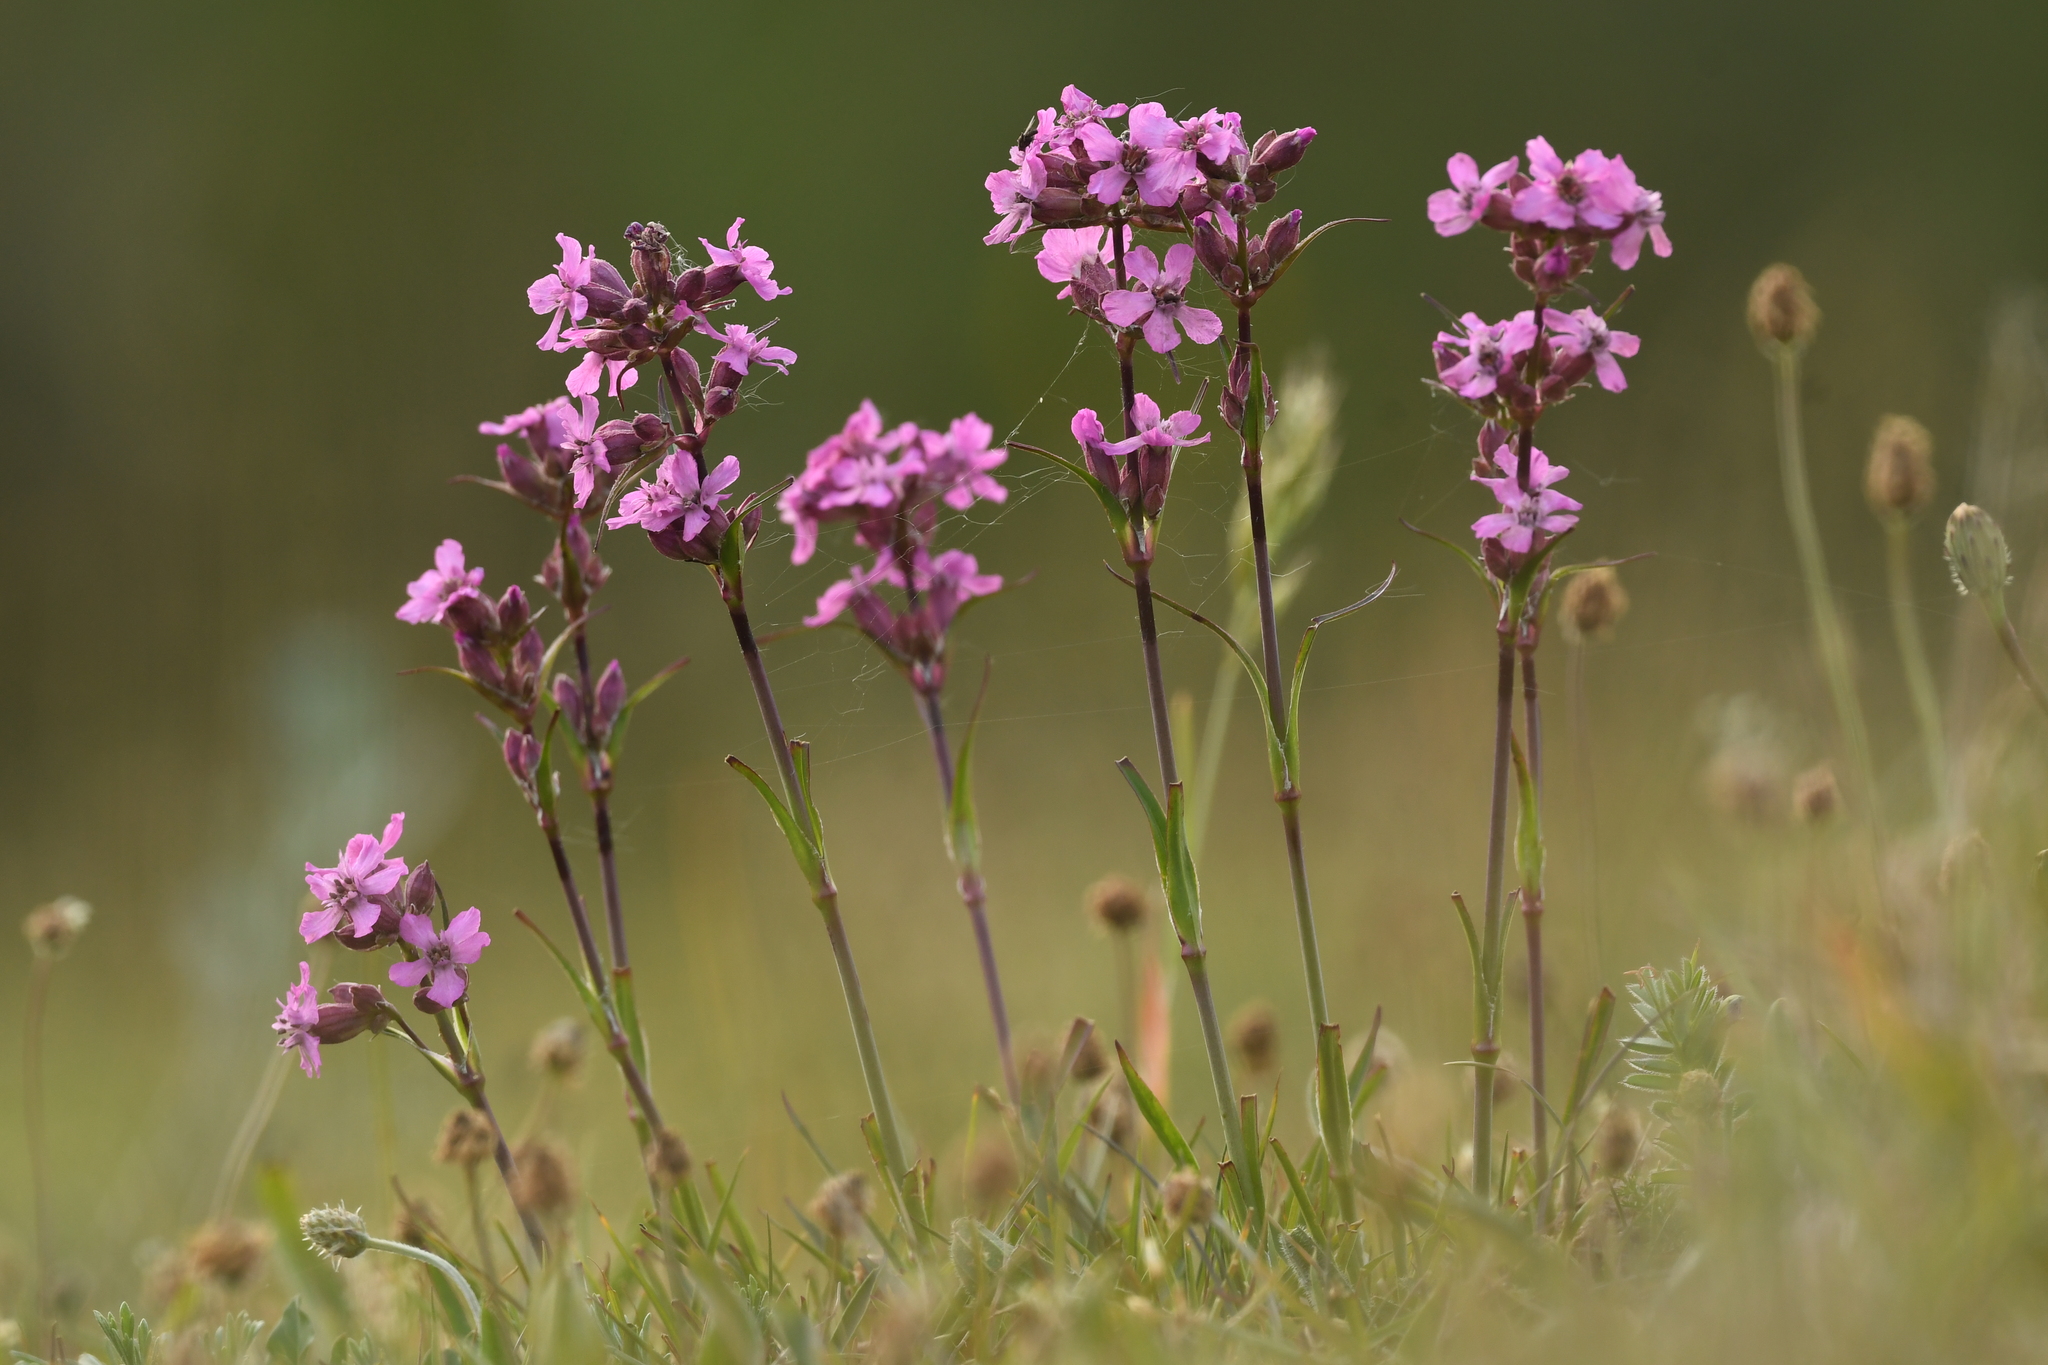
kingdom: Plantae
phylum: Tracheophyta
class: Magnoliopsida
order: Caryophyllales
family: Caryophyllaceae
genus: Viscaria
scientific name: Viscaria vulgaris
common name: Clammy campion
